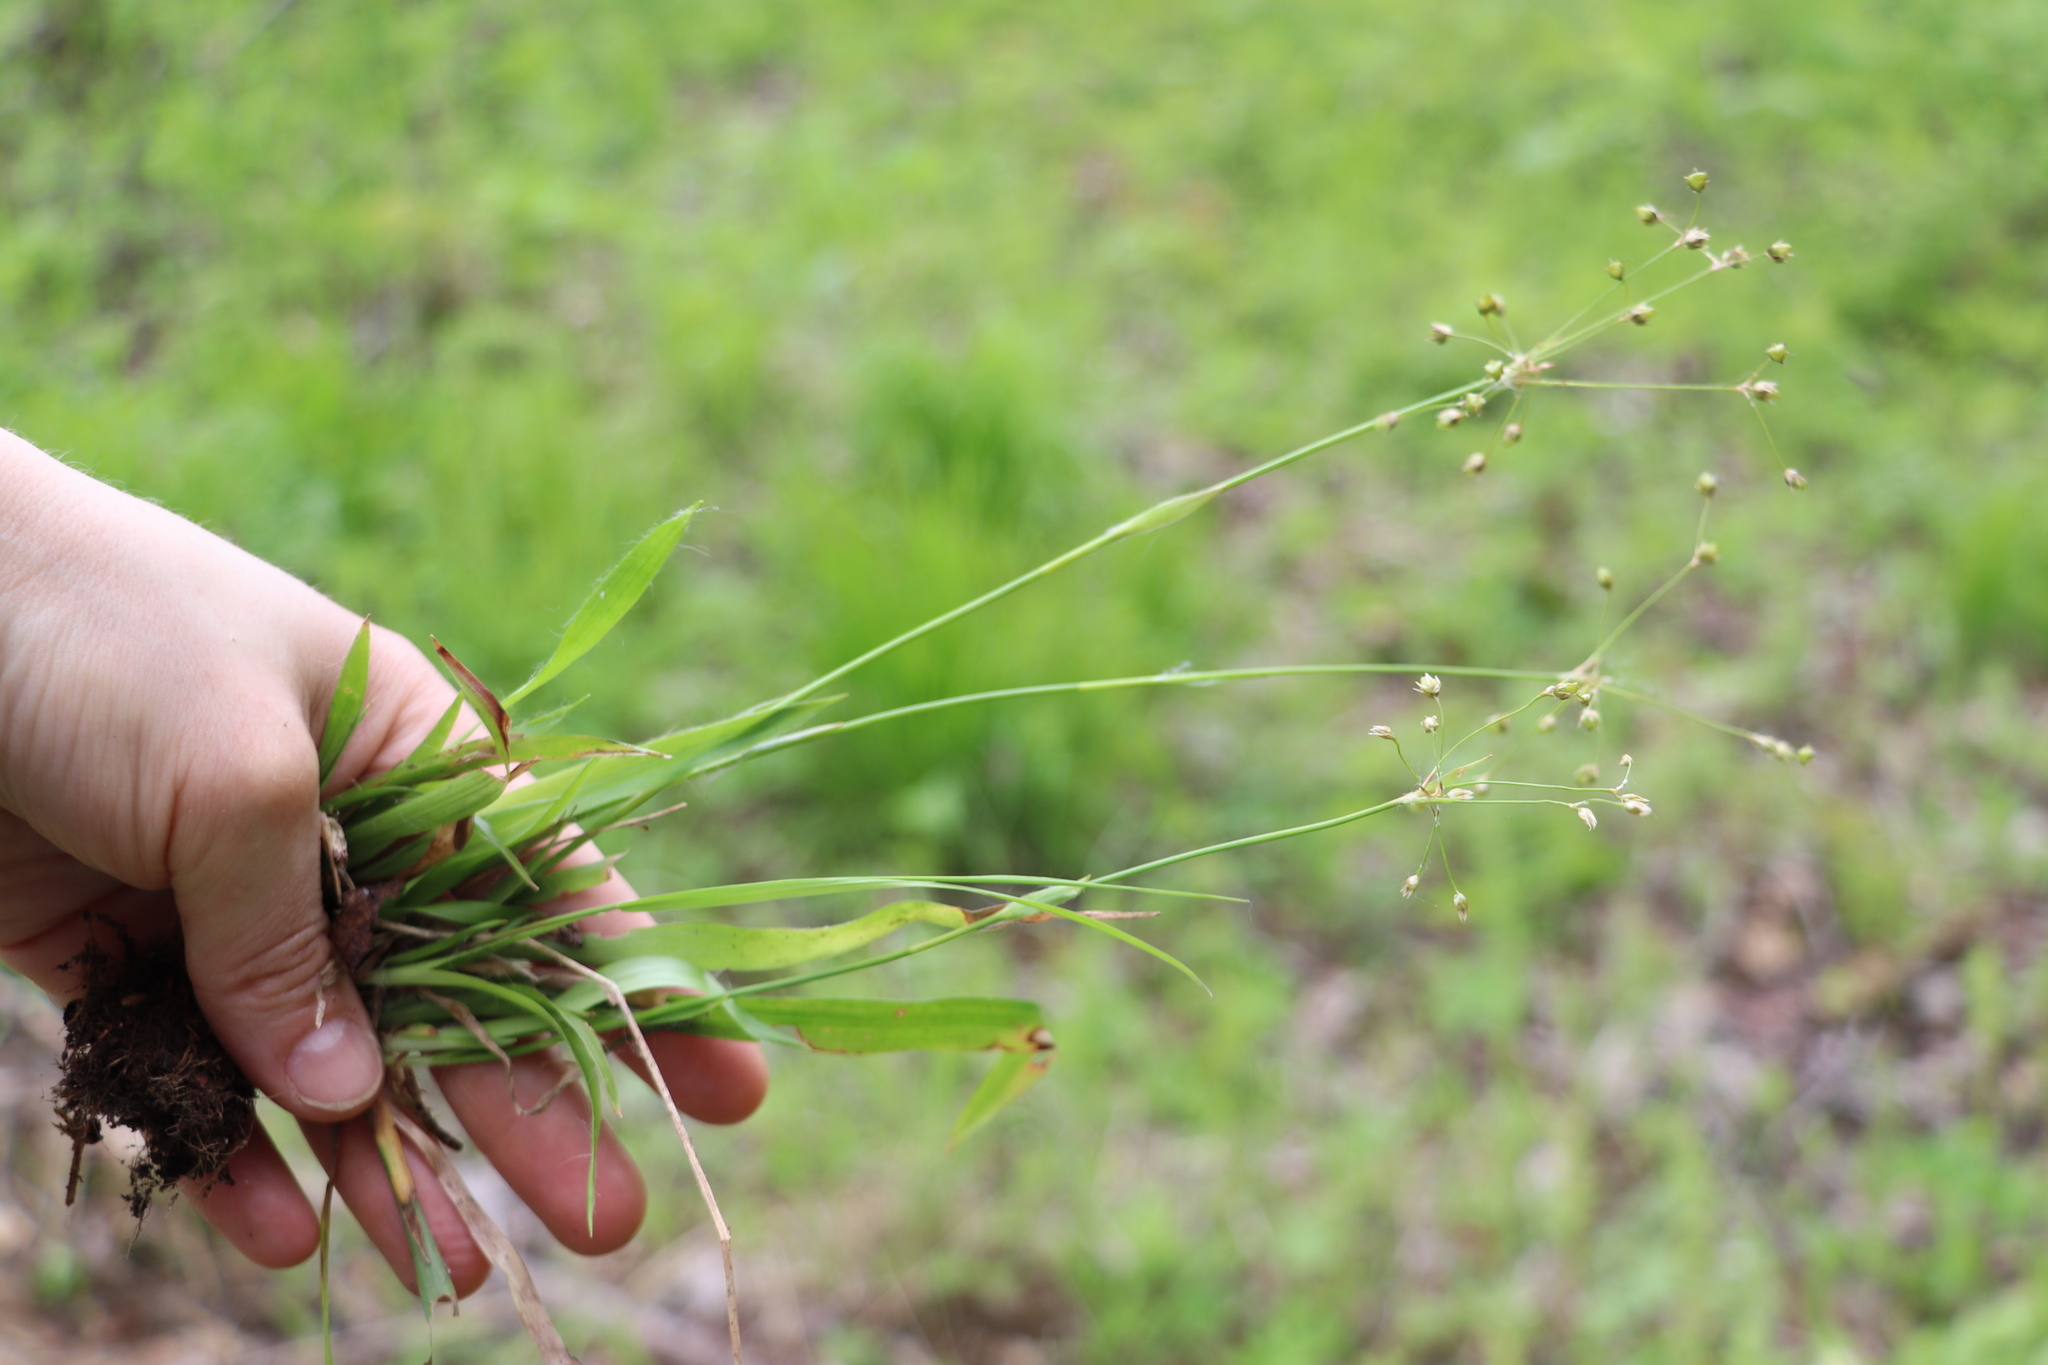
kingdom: Plantae
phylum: Tracheophyta
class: Liliopsida
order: Poales
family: Juncaceae
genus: Luzula
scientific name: Luzula pilosa
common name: Hairy wood-rush
